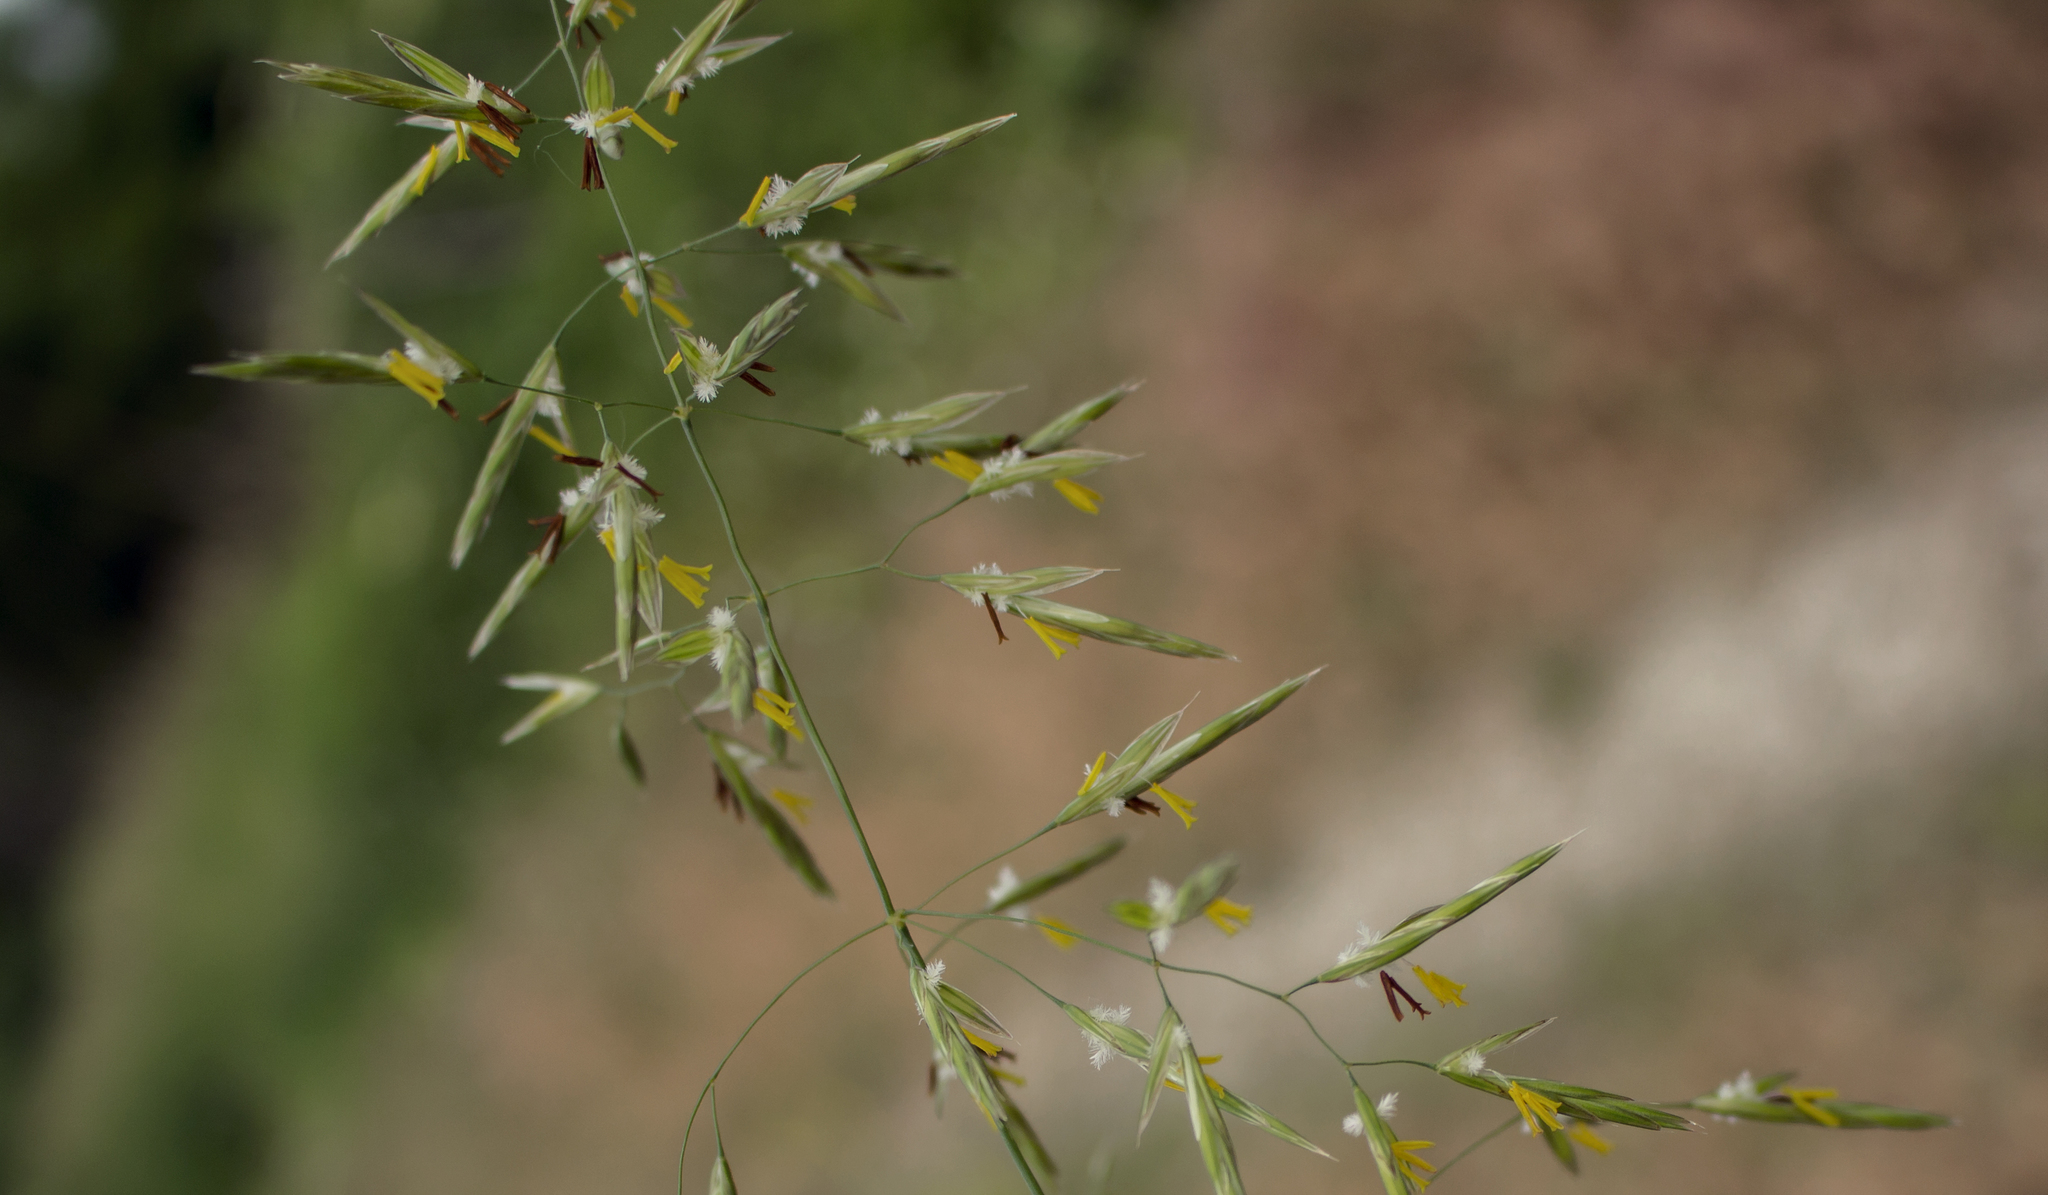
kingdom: Plantae
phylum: Tracheophyta
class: Liliopsida
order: Poales
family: Poaceae
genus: Bromus
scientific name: Bromus inermis
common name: Smooth brome
